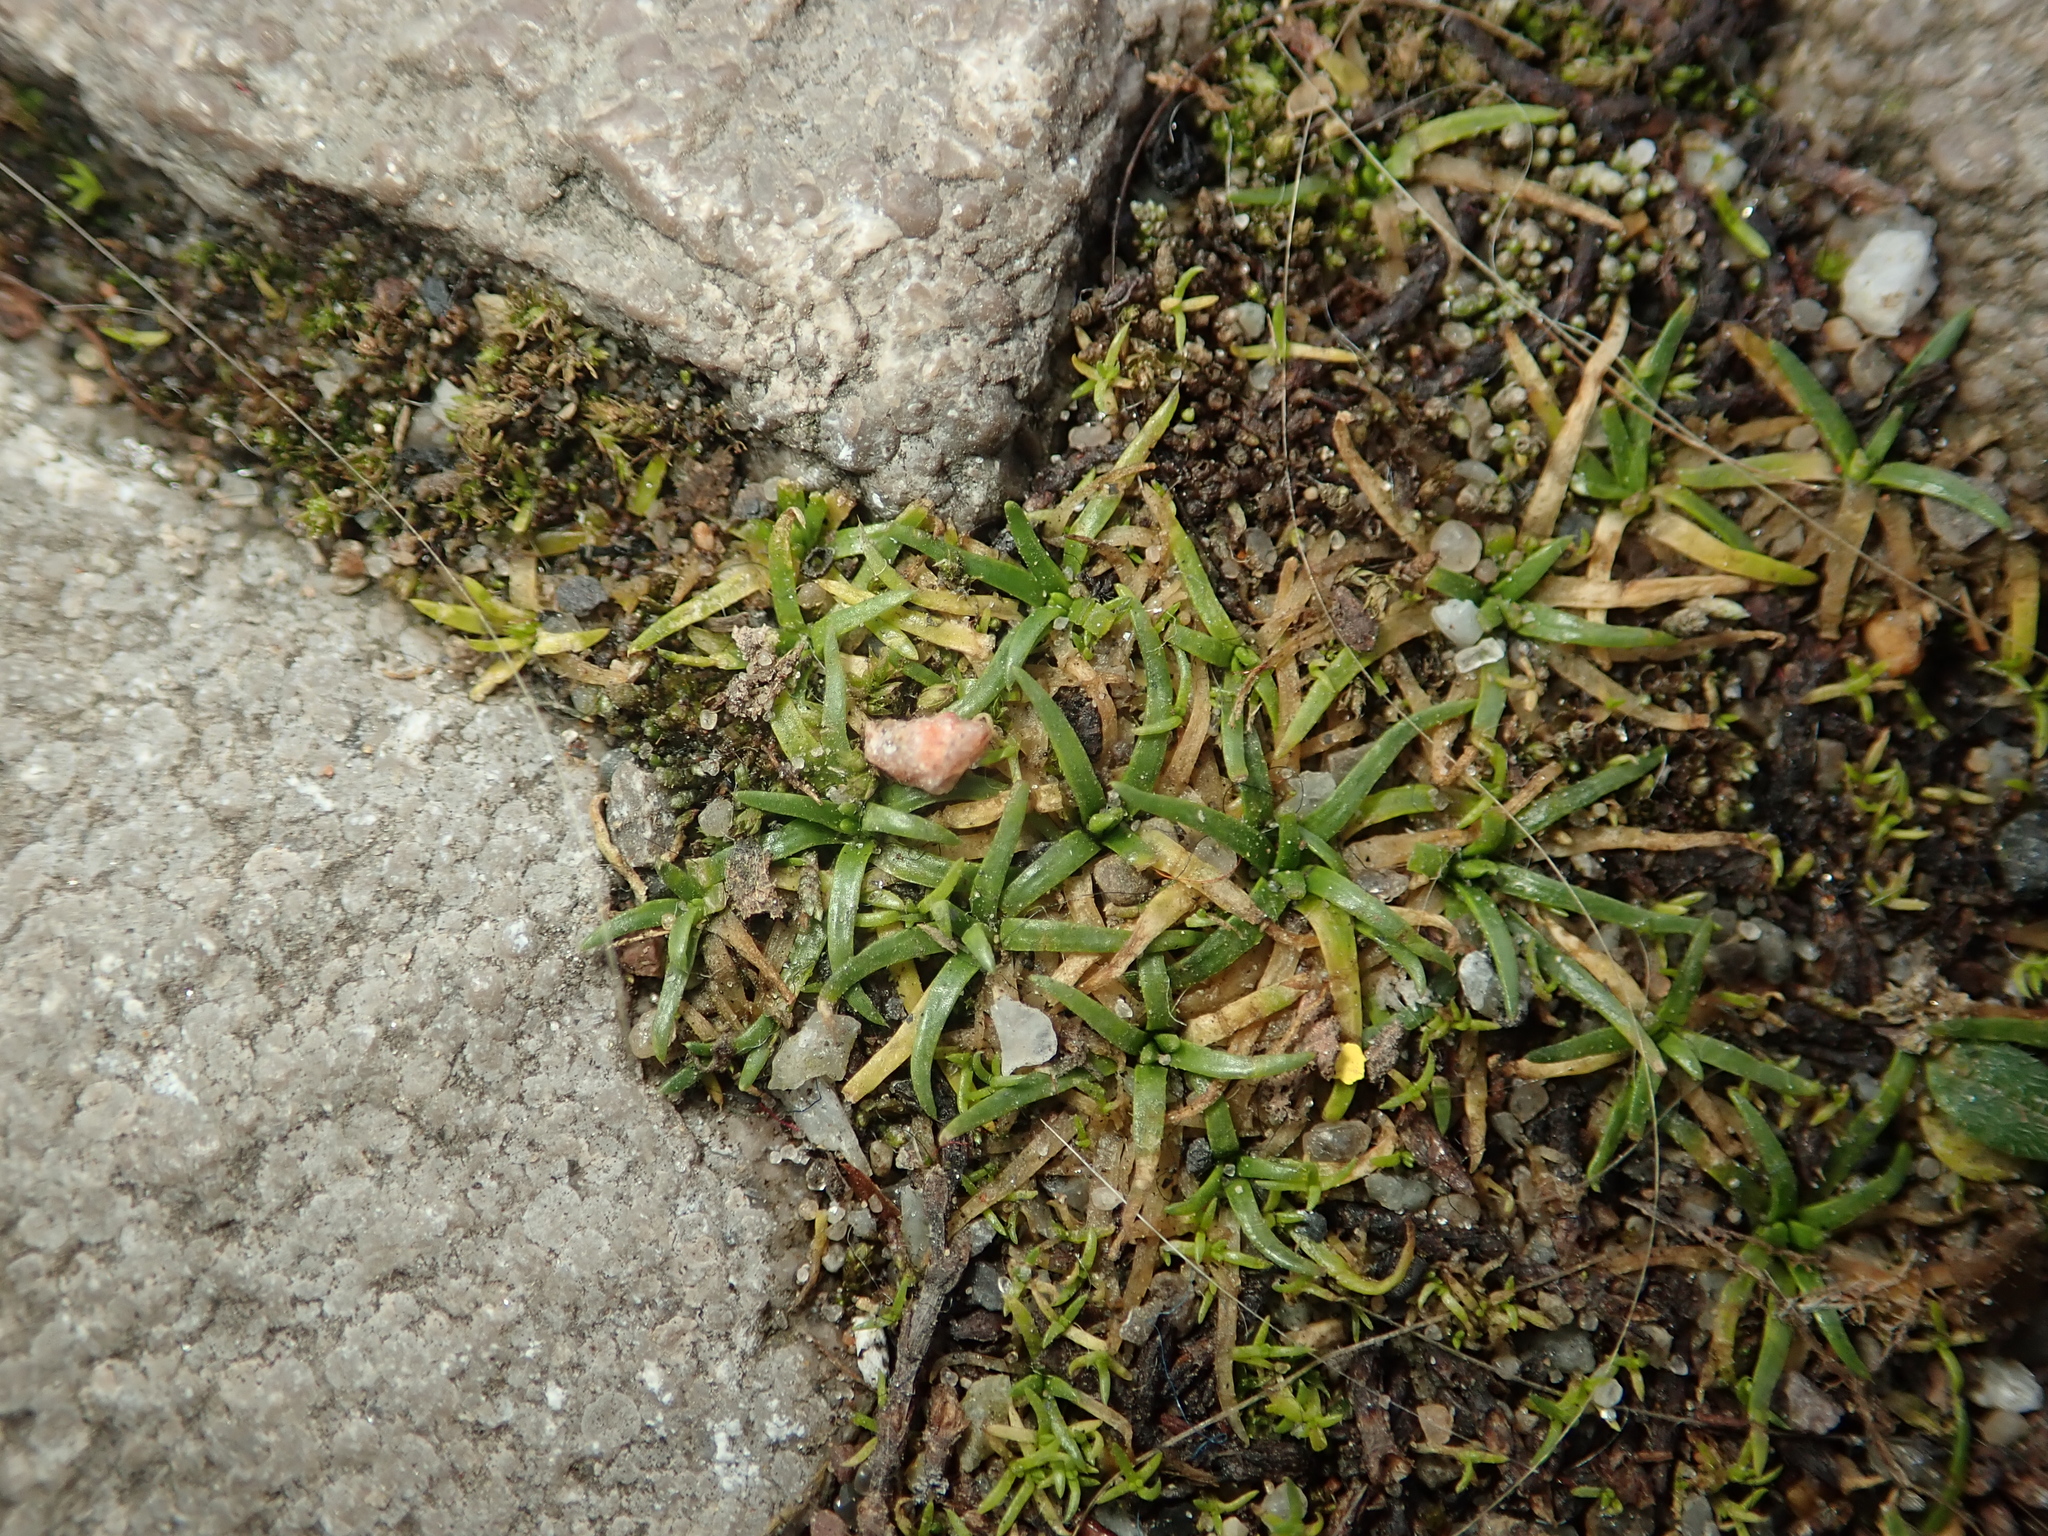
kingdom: Plantae
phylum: Tracheophyta
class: Magnoliopsida
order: Caryophyllales
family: Caryophyllaceae
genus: Sagina
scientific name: Sagina procumbens
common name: Procumbent pearlwort
